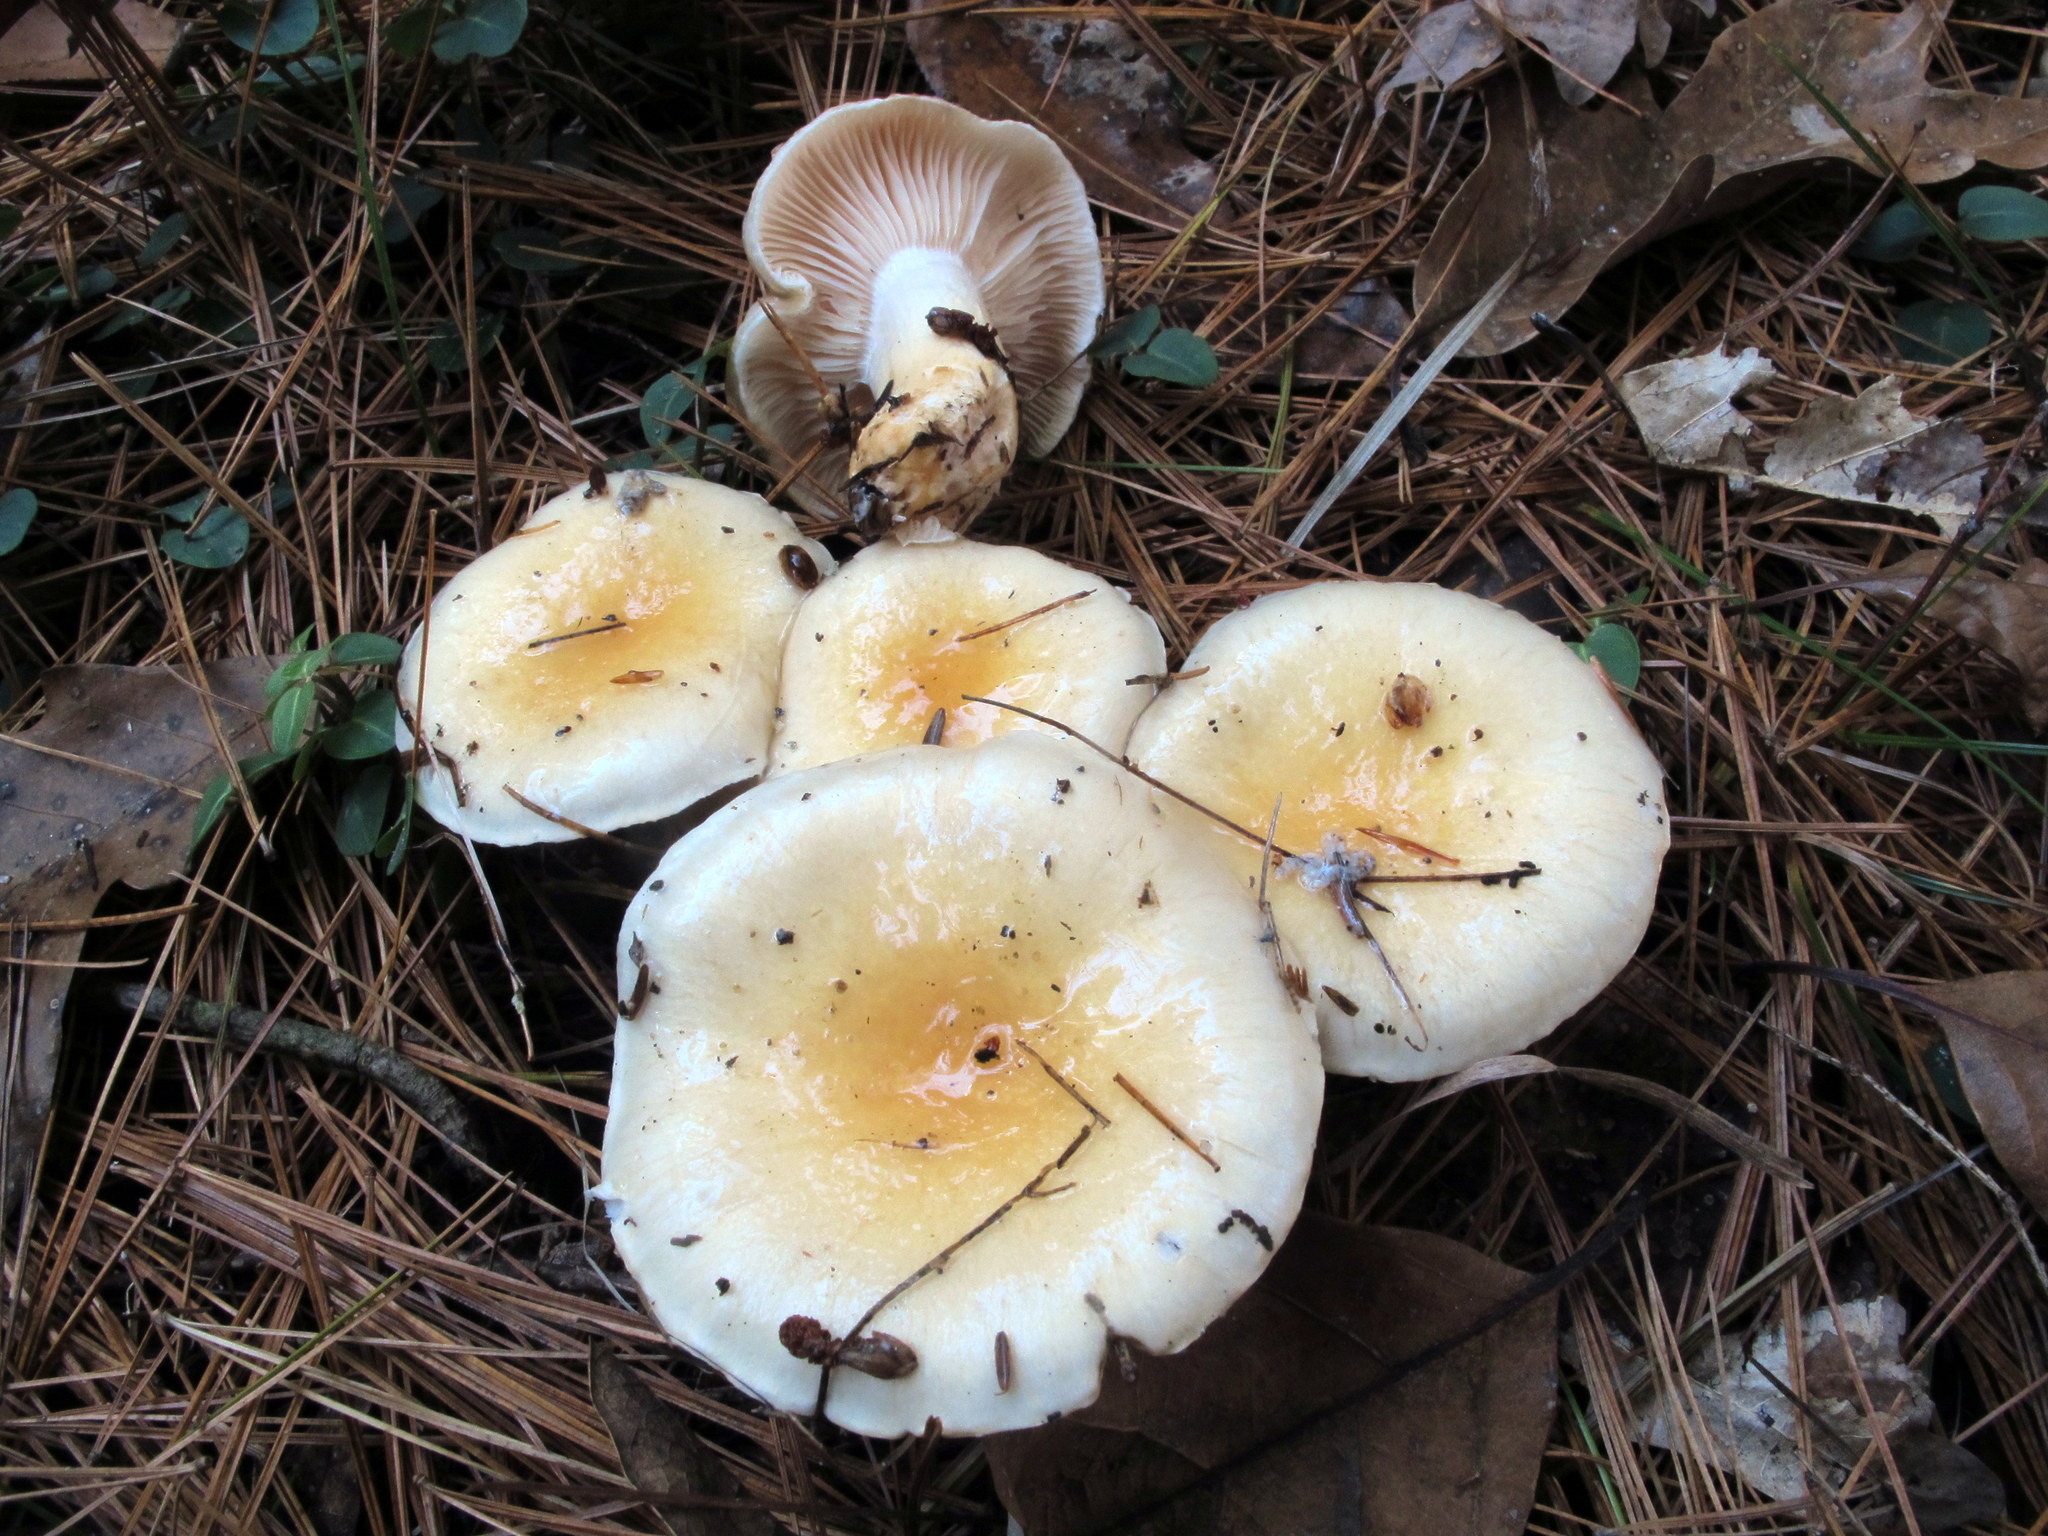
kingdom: Fungi
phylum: Basidiomycota
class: Agaricomycetes
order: Agaricales
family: Hygrophoraceae
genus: Hygrophorus
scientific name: Hygrophorus ligatus
